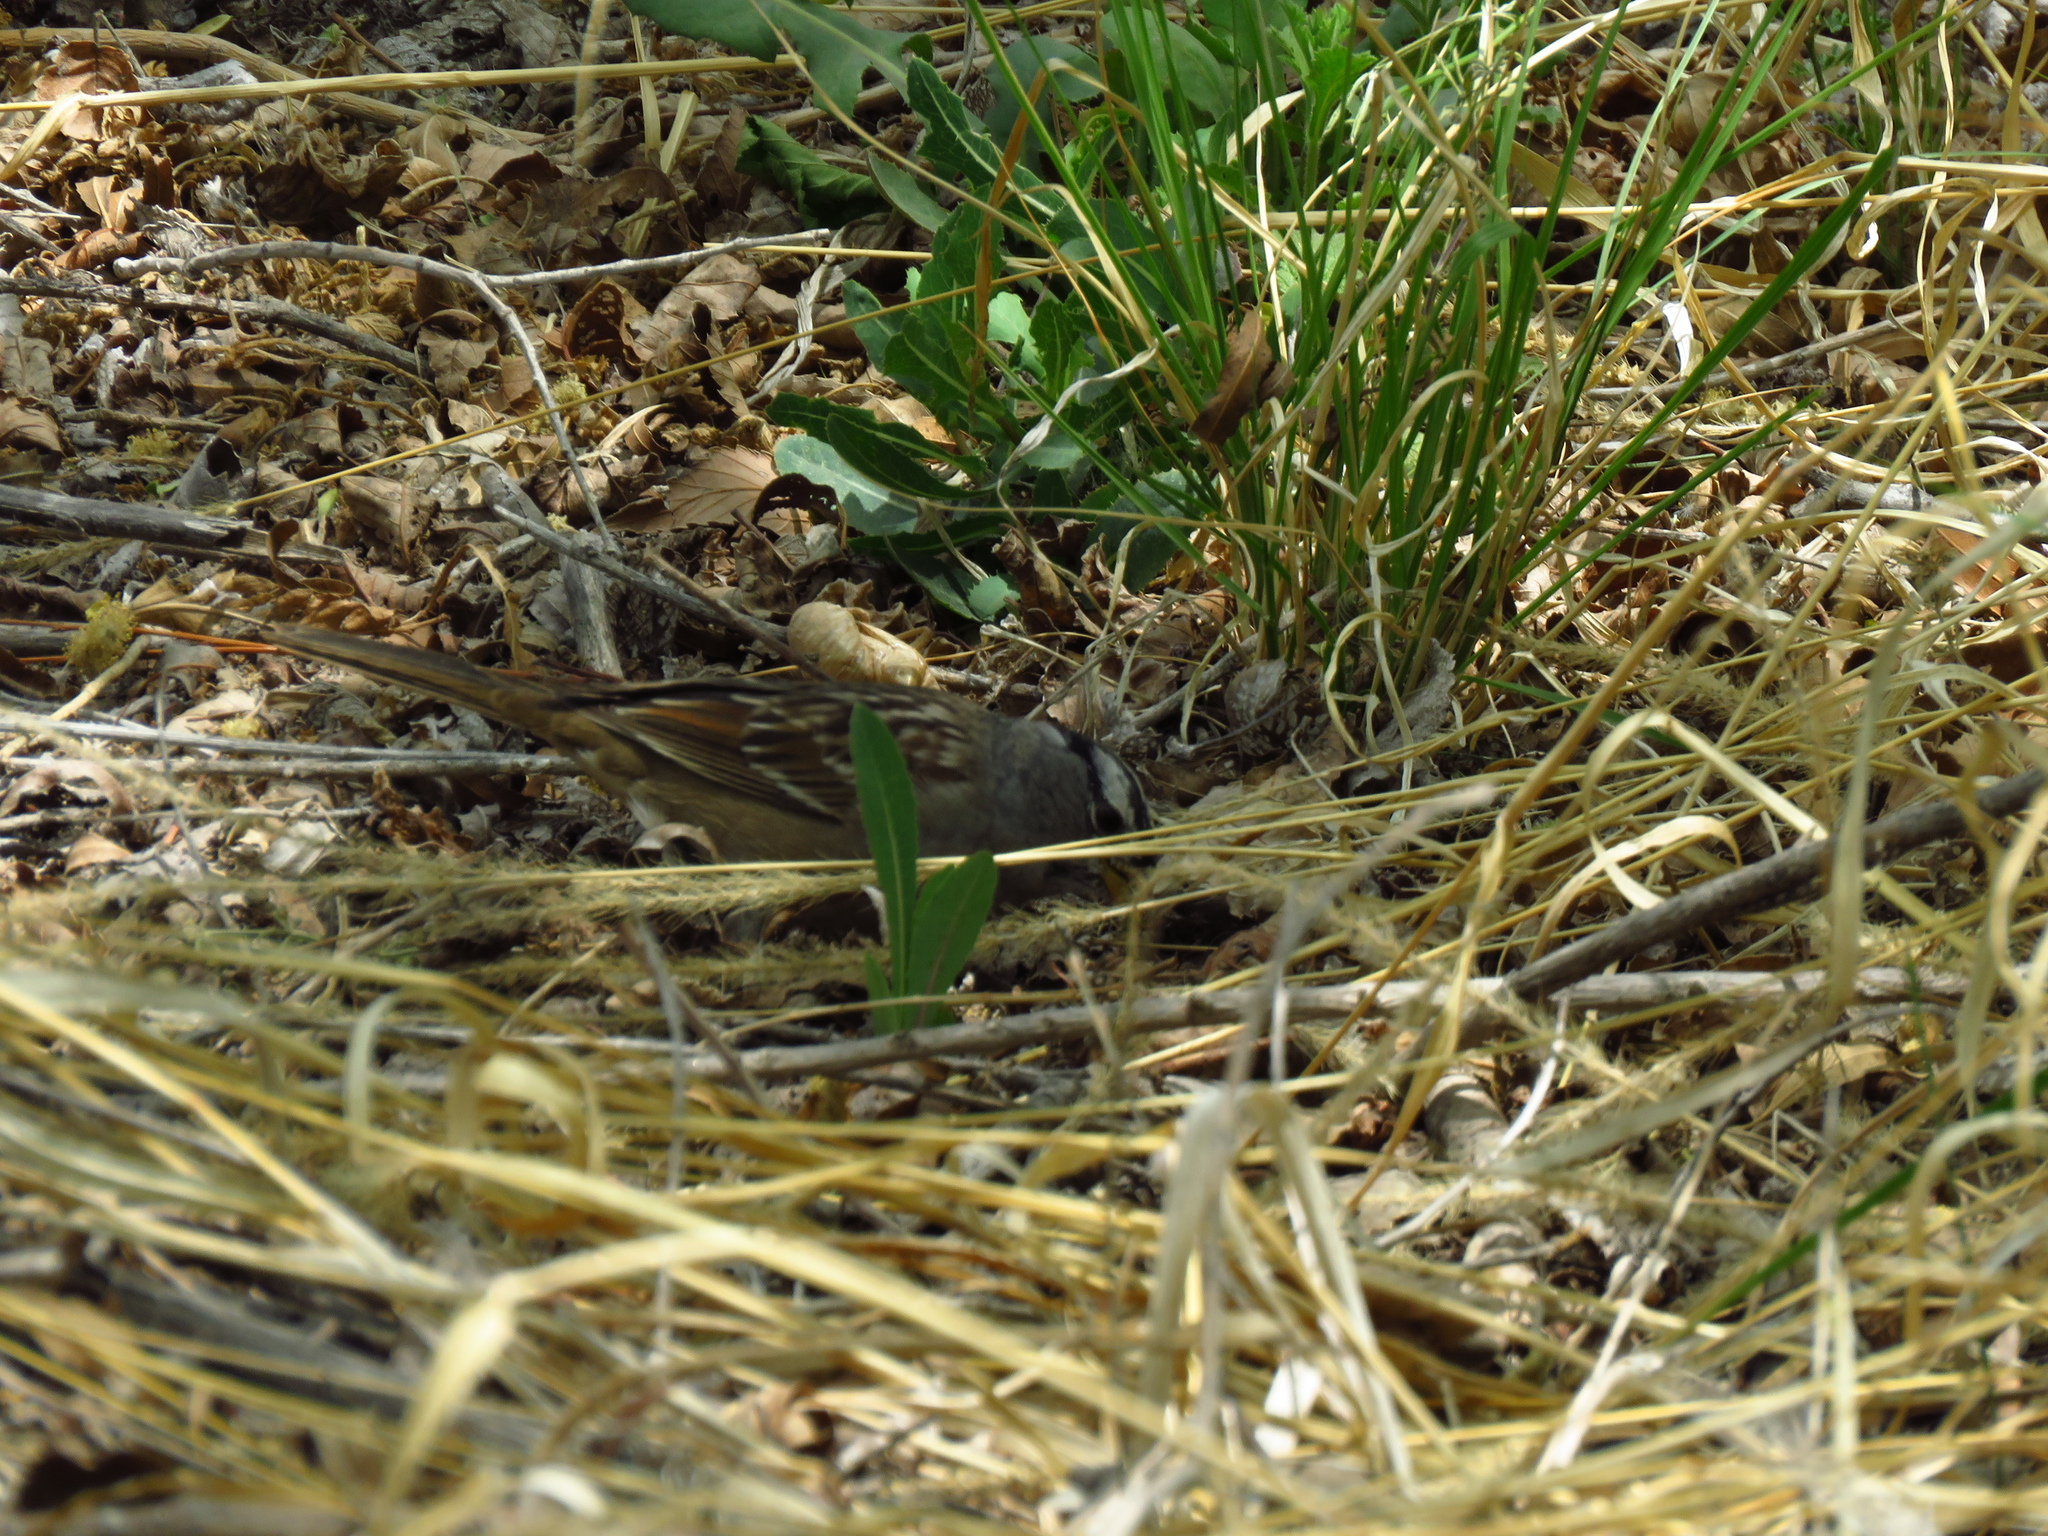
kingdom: Animalia
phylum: Chordata
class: Aves
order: Passeriformes
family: Passerellidae
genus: Zonotrichia
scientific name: Zonotrichia leucophrys
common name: White-crowned sparrow
